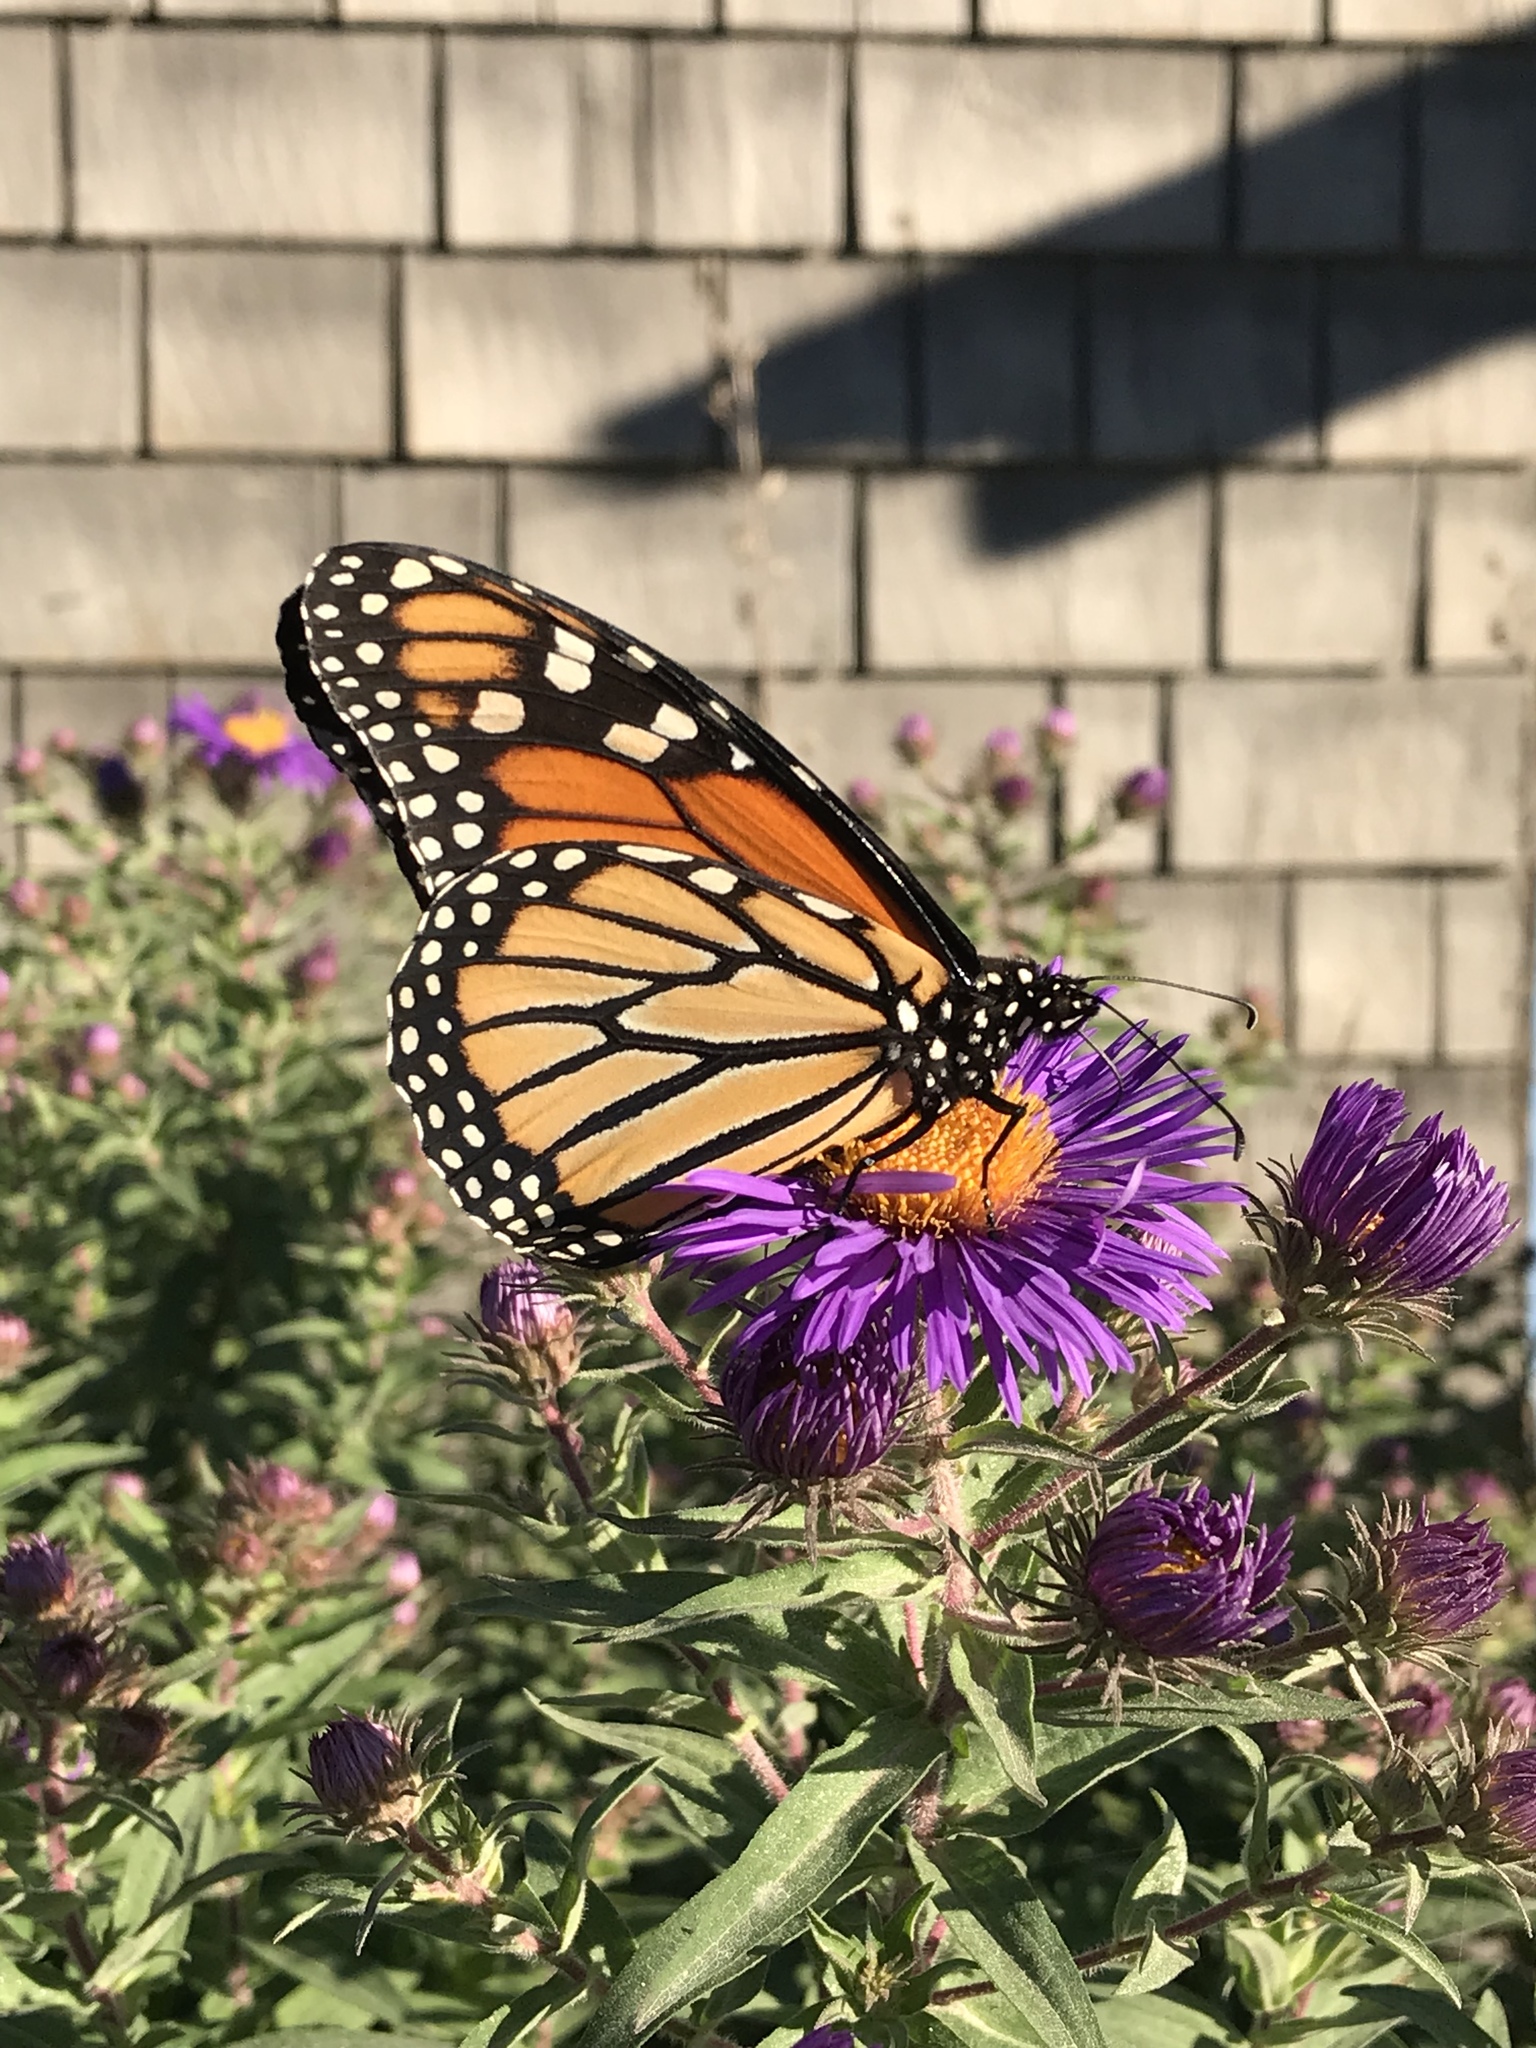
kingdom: Animalia
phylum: Arthropoda
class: Insecta
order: Lepidoptera
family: Nymphalidae
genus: Danaus
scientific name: Danaus plexippus
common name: Monarch
